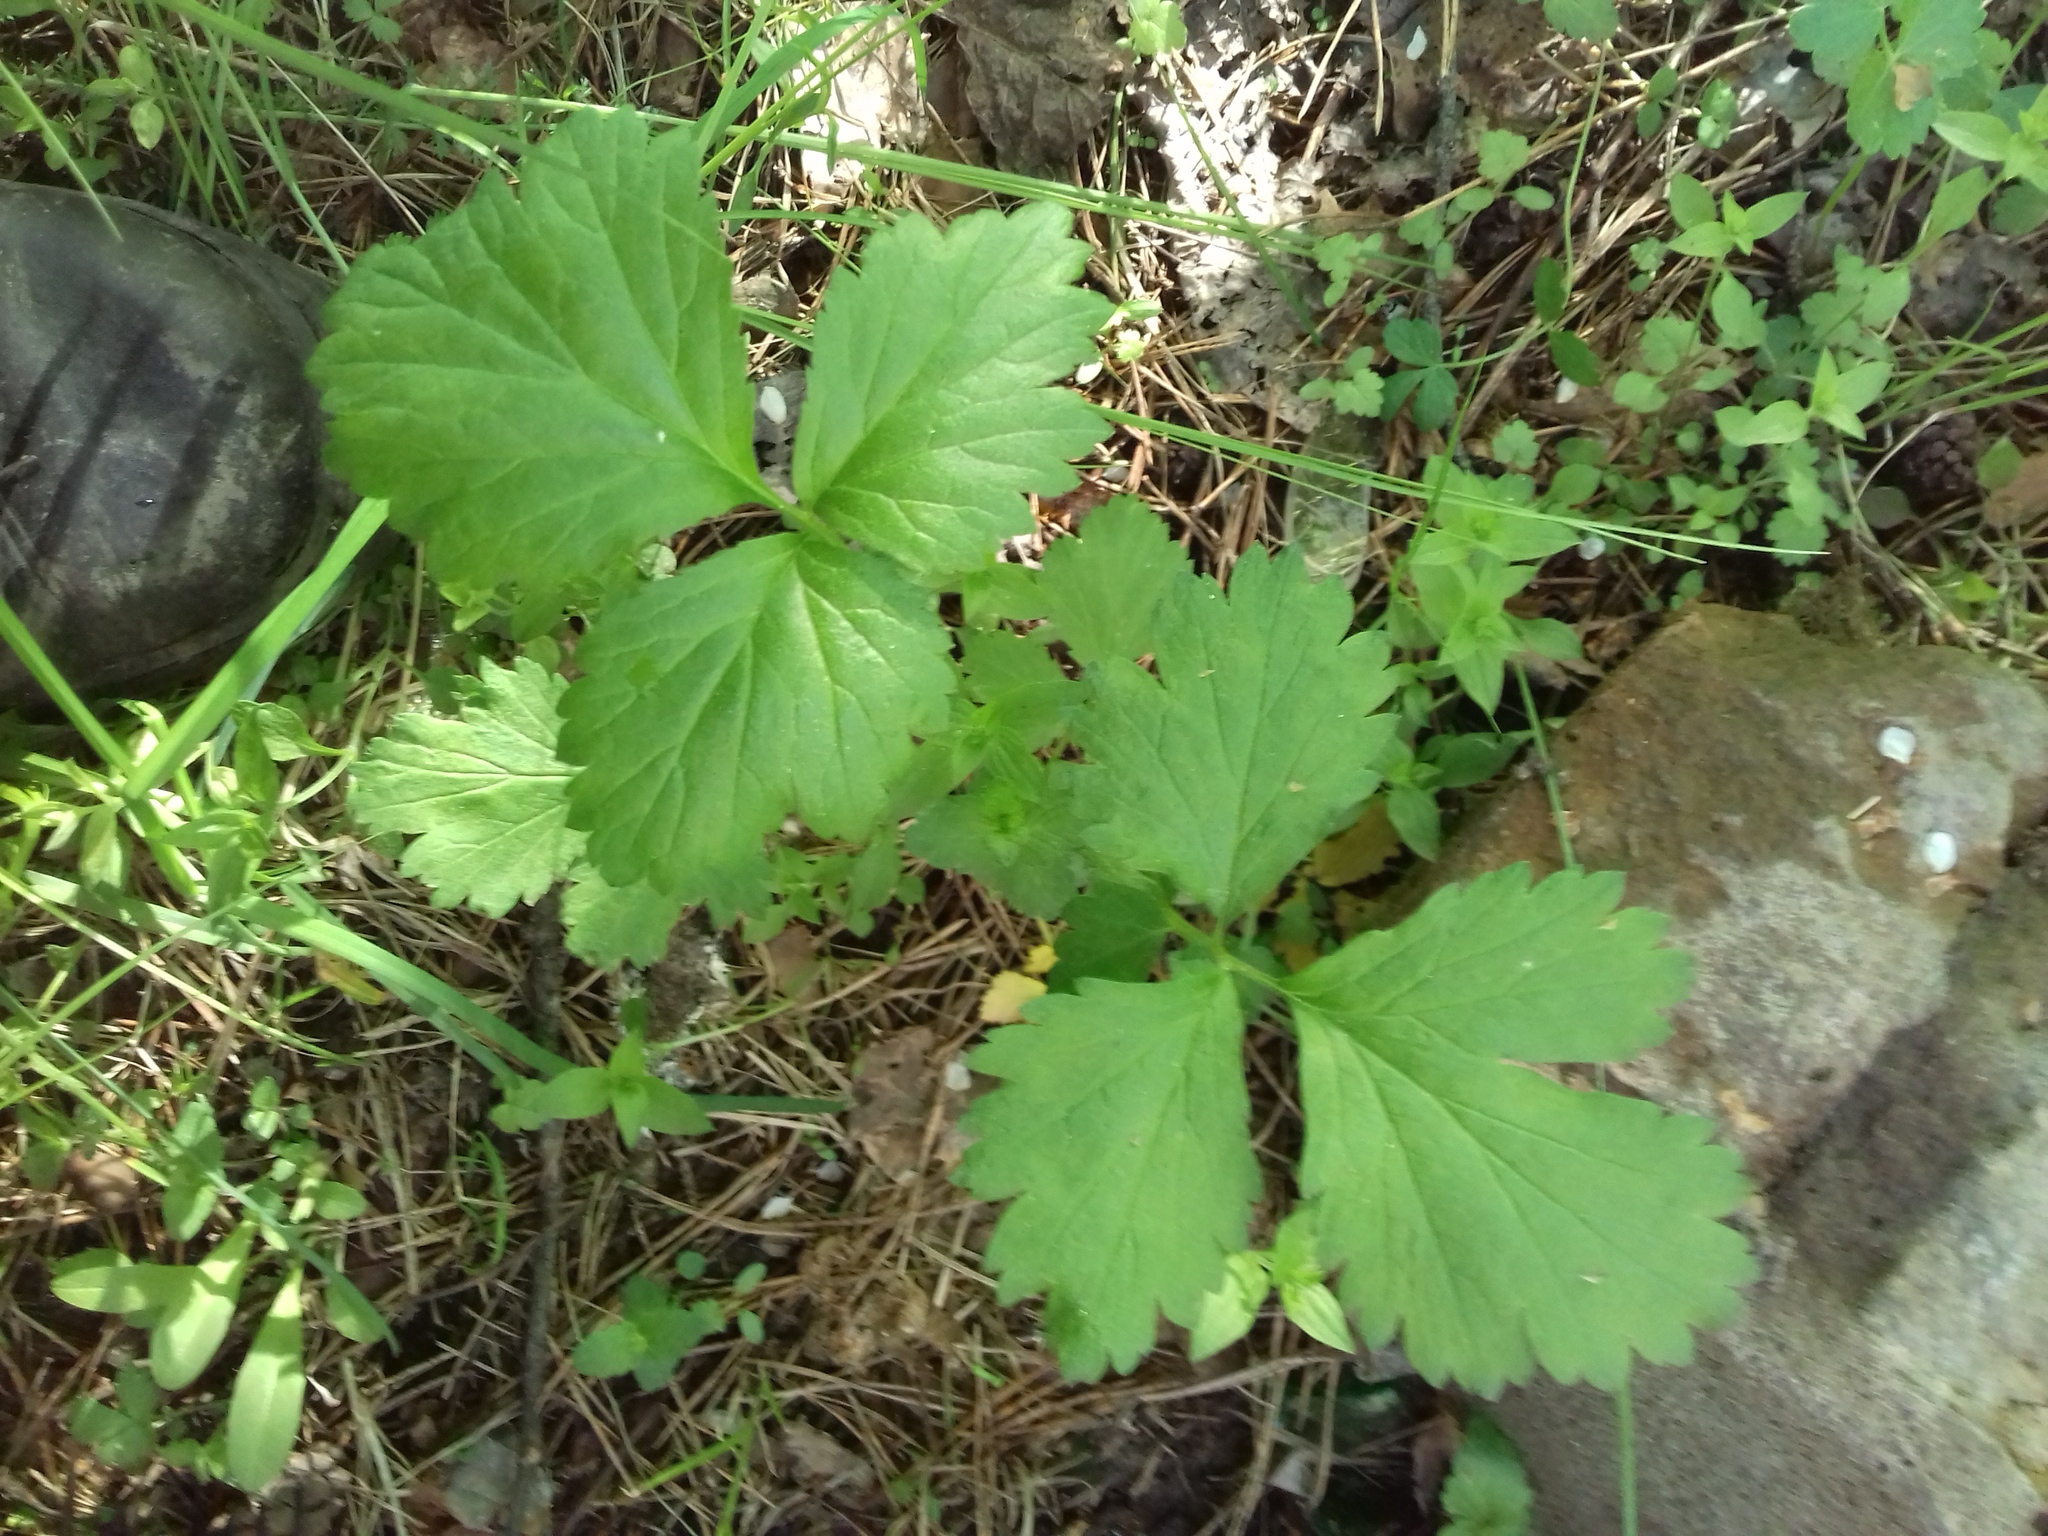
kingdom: Plantae
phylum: Tracheophyta
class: Magnoliopsida
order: Rosales
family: Rosaceae
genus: Geum
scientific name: Geum urbanum
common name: Wood avens
